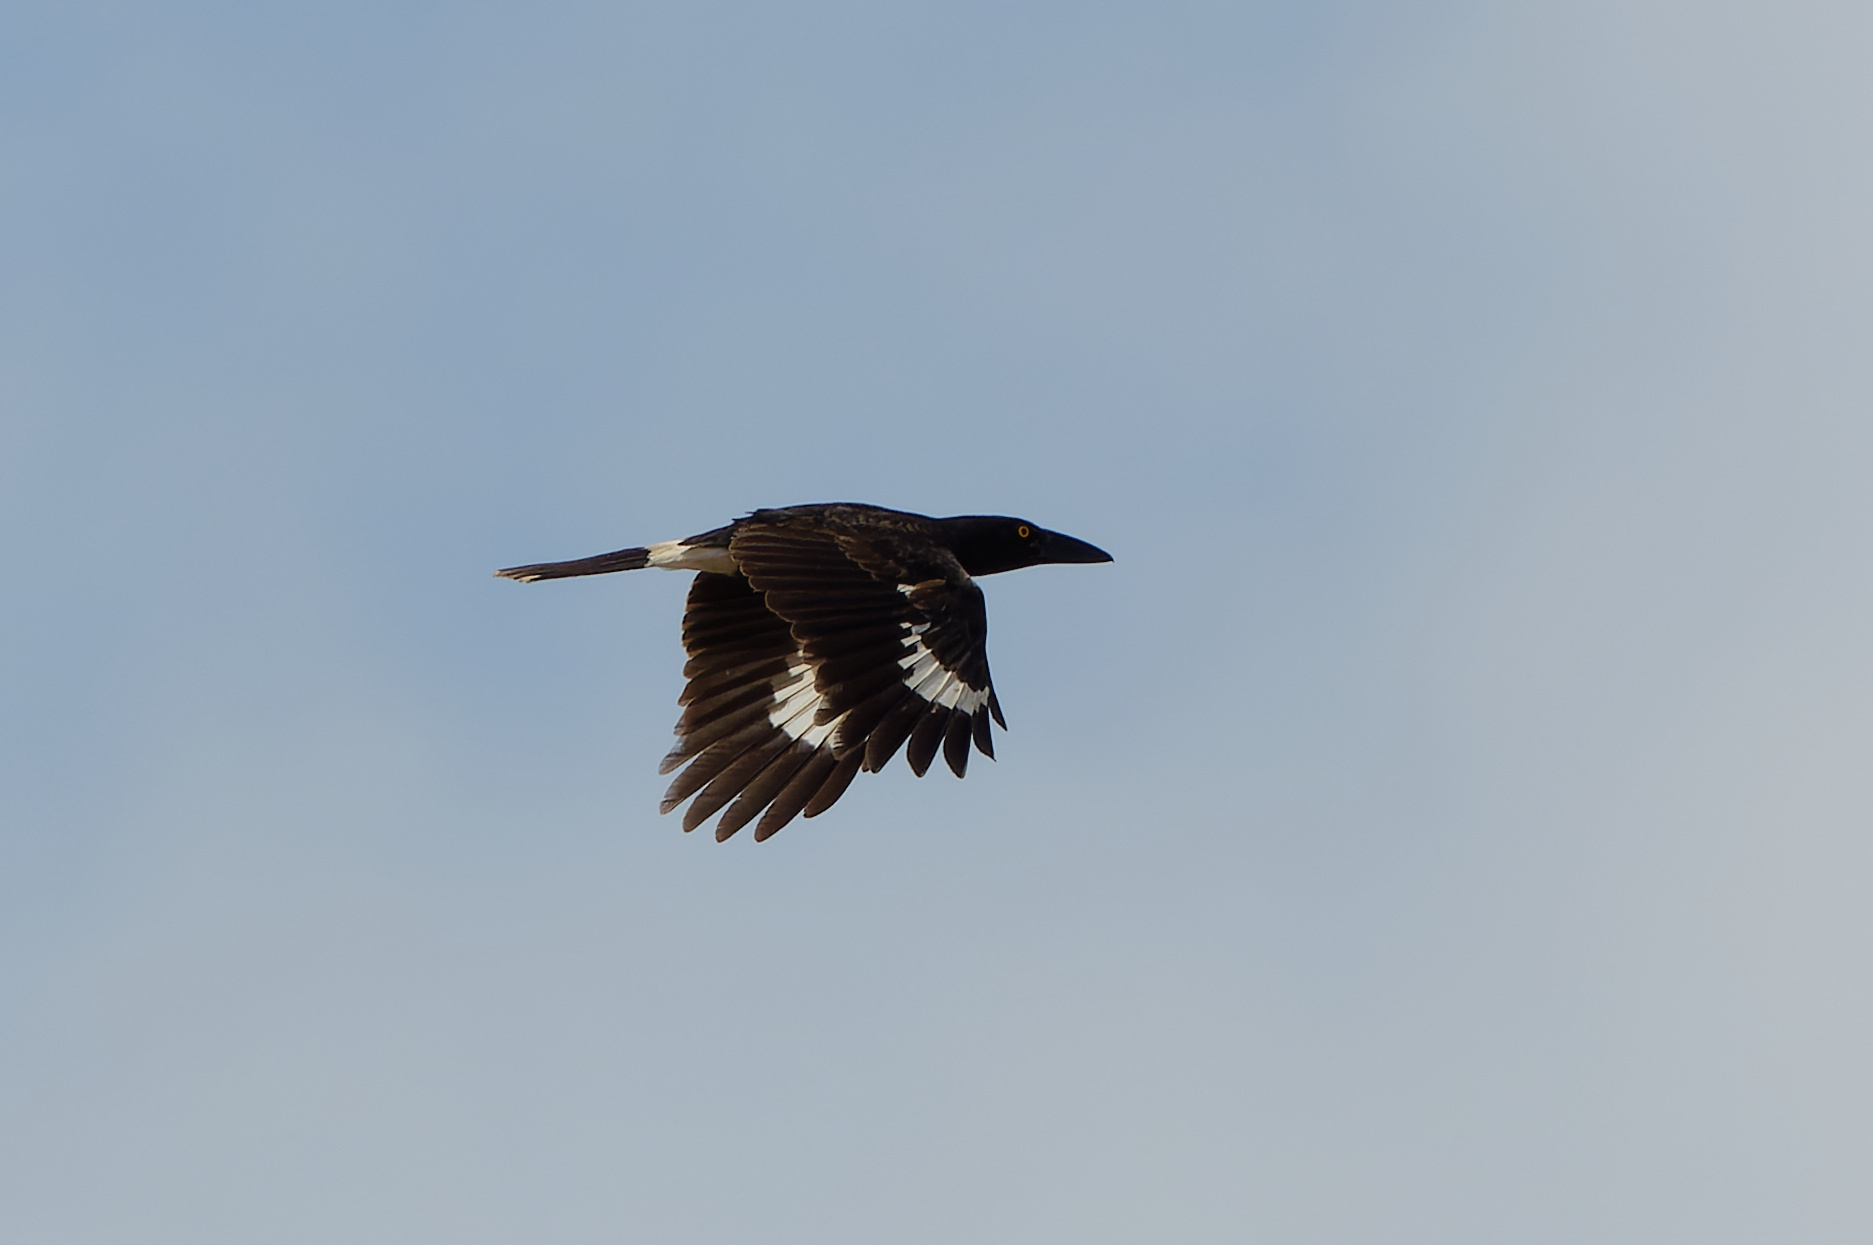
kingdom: Animalia
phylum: Chordata
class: Aves
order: Passeriformes
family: Cracticidae
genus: Strepera
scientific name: Strepera graculina
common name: Pied currawong
